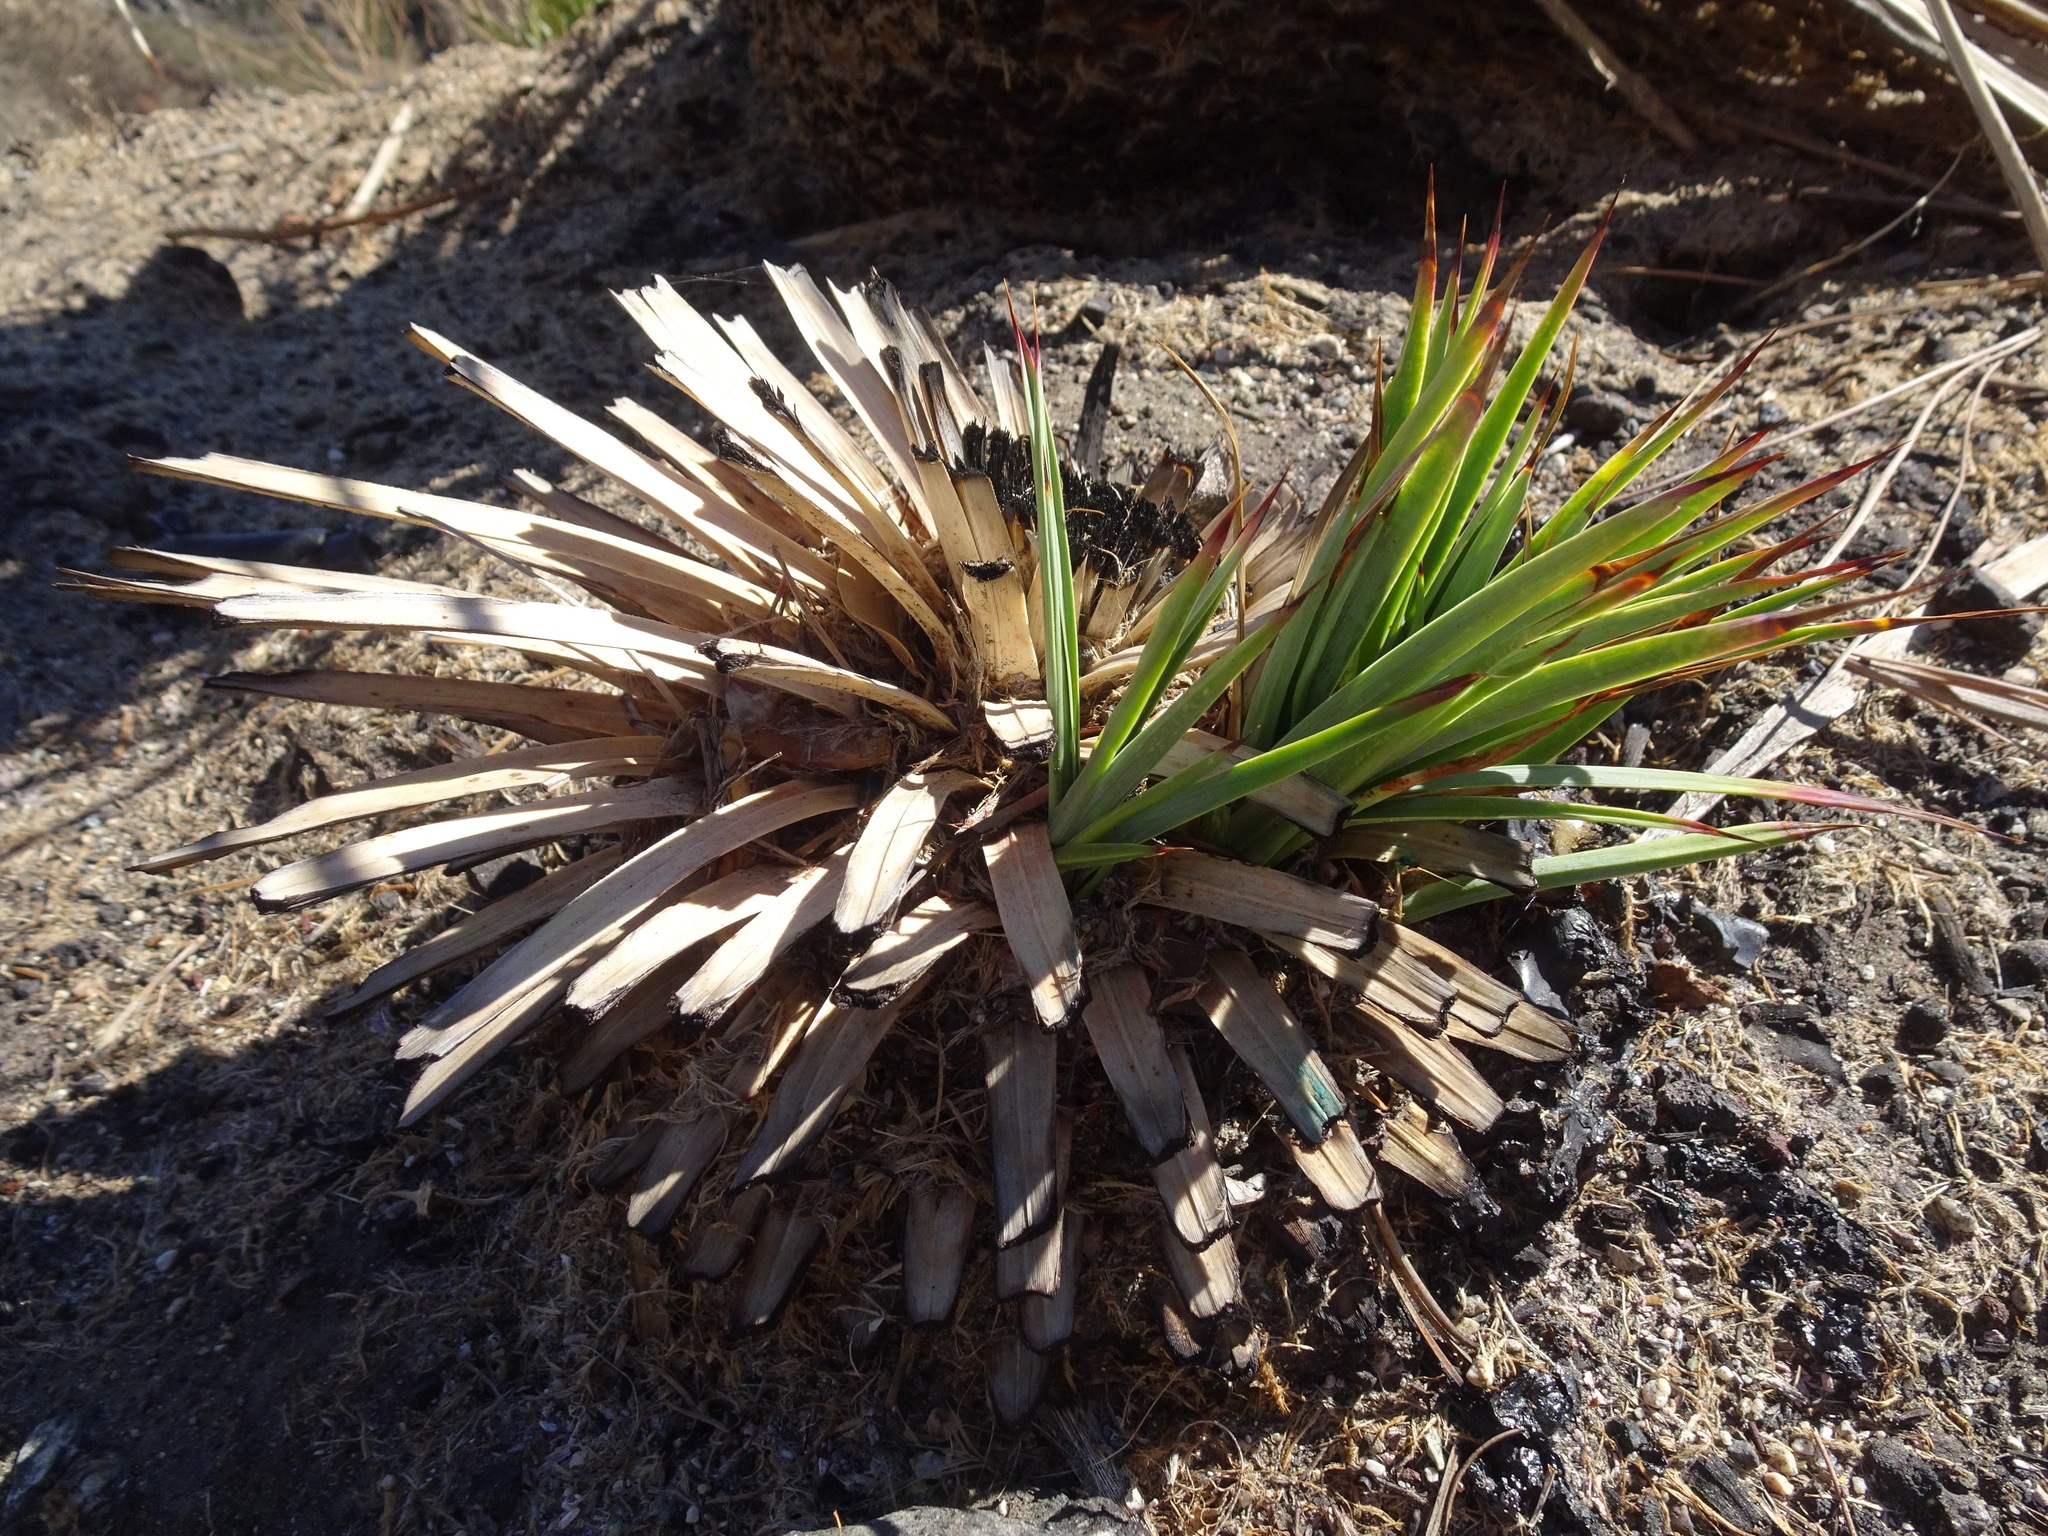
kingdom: Plantae
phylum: Tracheophyta
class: Liliopsida
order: Asparagales
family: Asparagaceae
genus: Hesperoyucca
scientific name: Hesperoyucca whipplei
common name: Our lord's-candle
